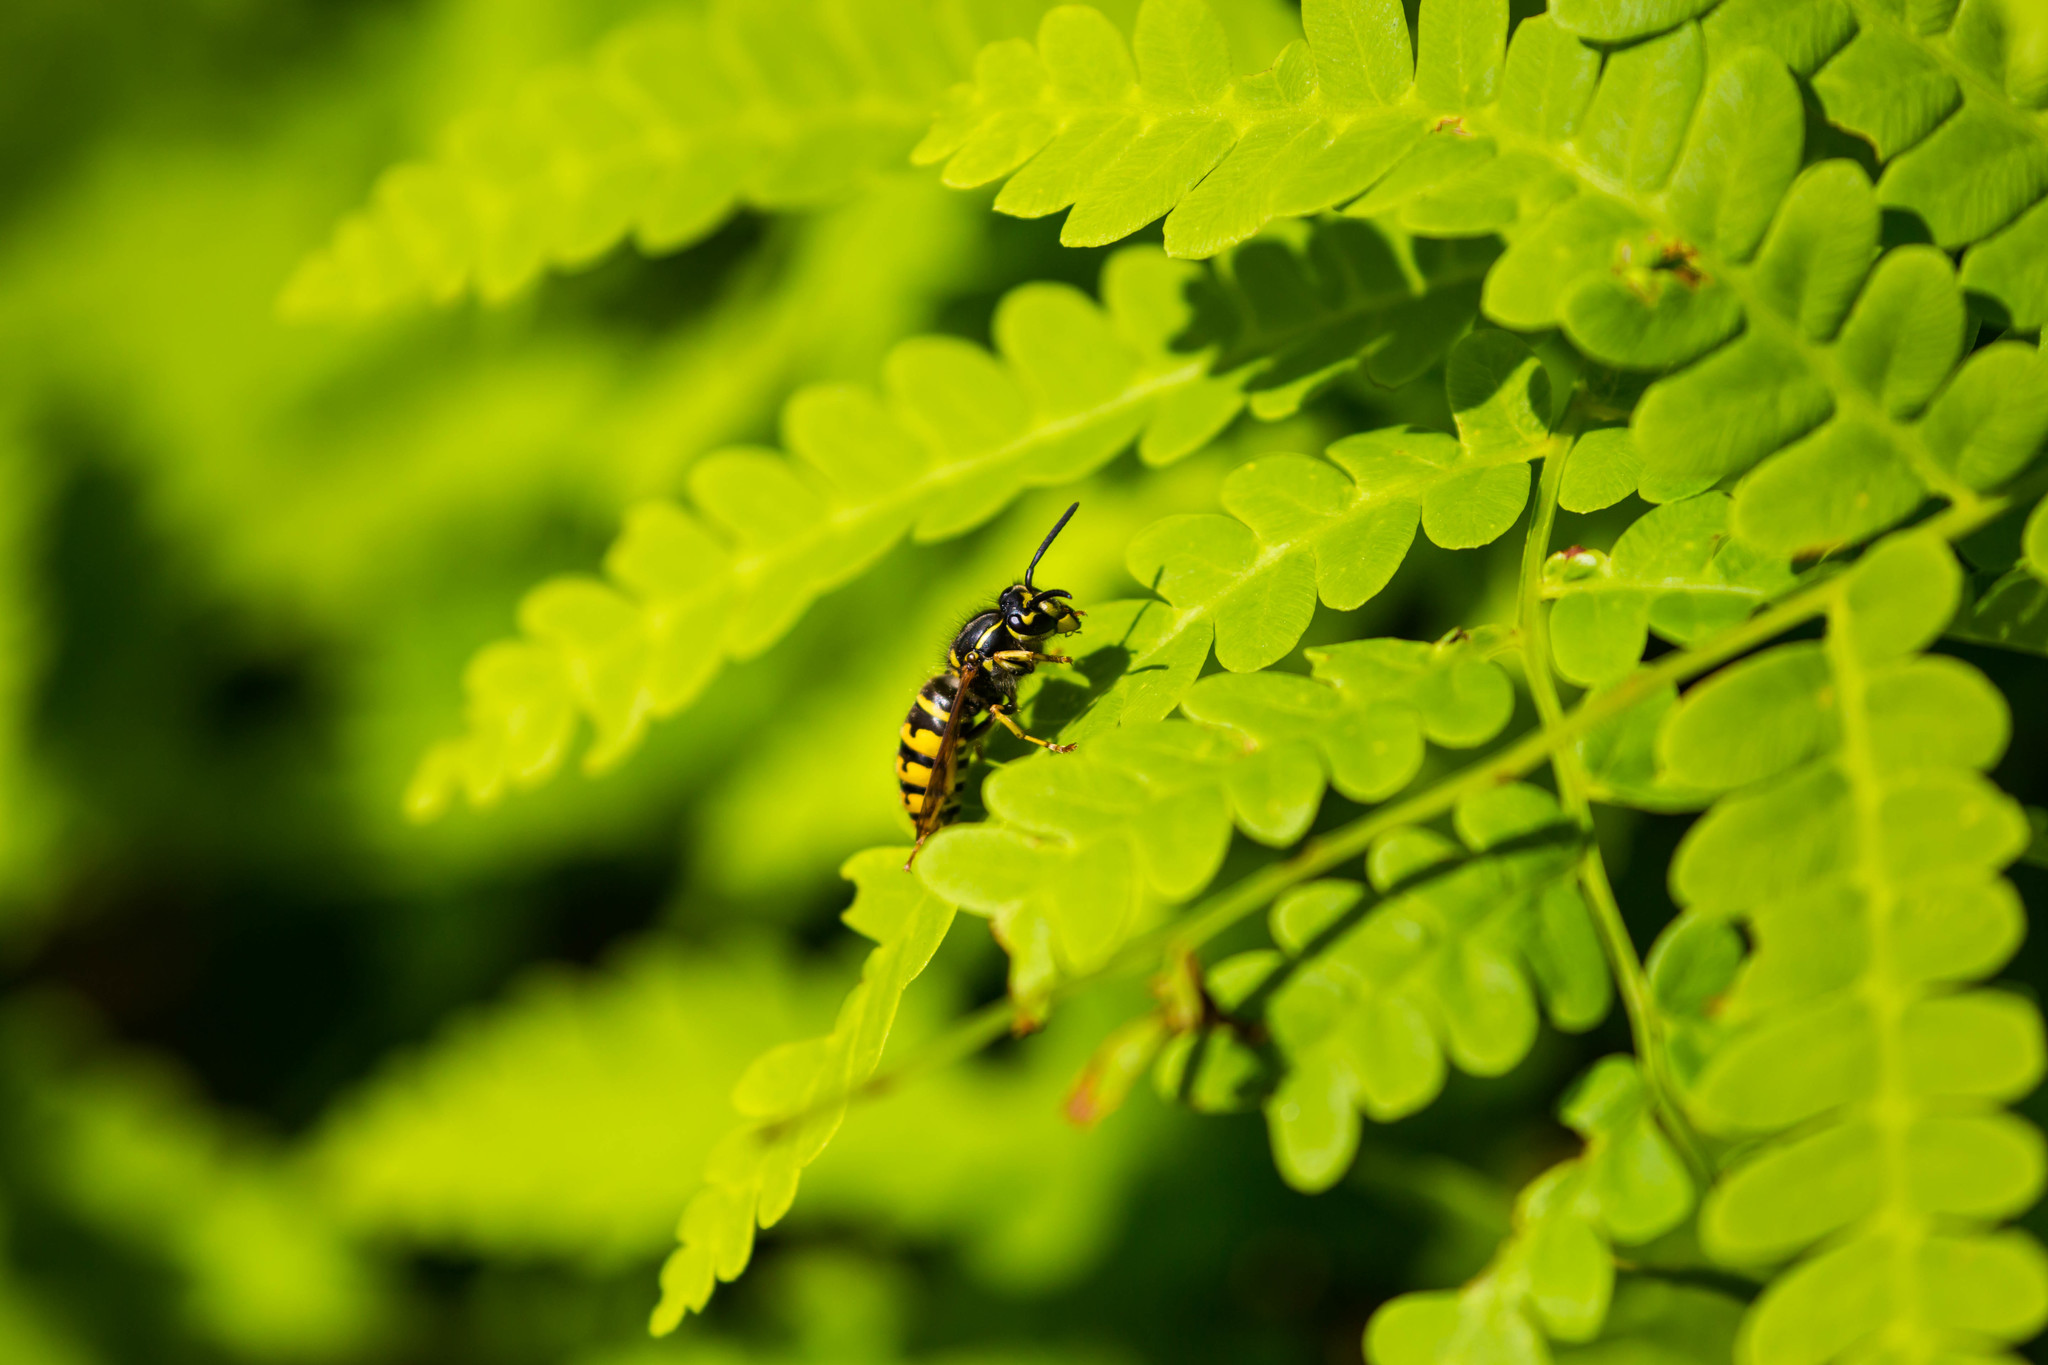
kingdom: Animalia
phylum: Arthropoda
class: Insecta
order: Hymenoptera
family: Vespidae
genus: Vespula
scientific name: Vespula alascensis
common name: Alaska yellowjacket
